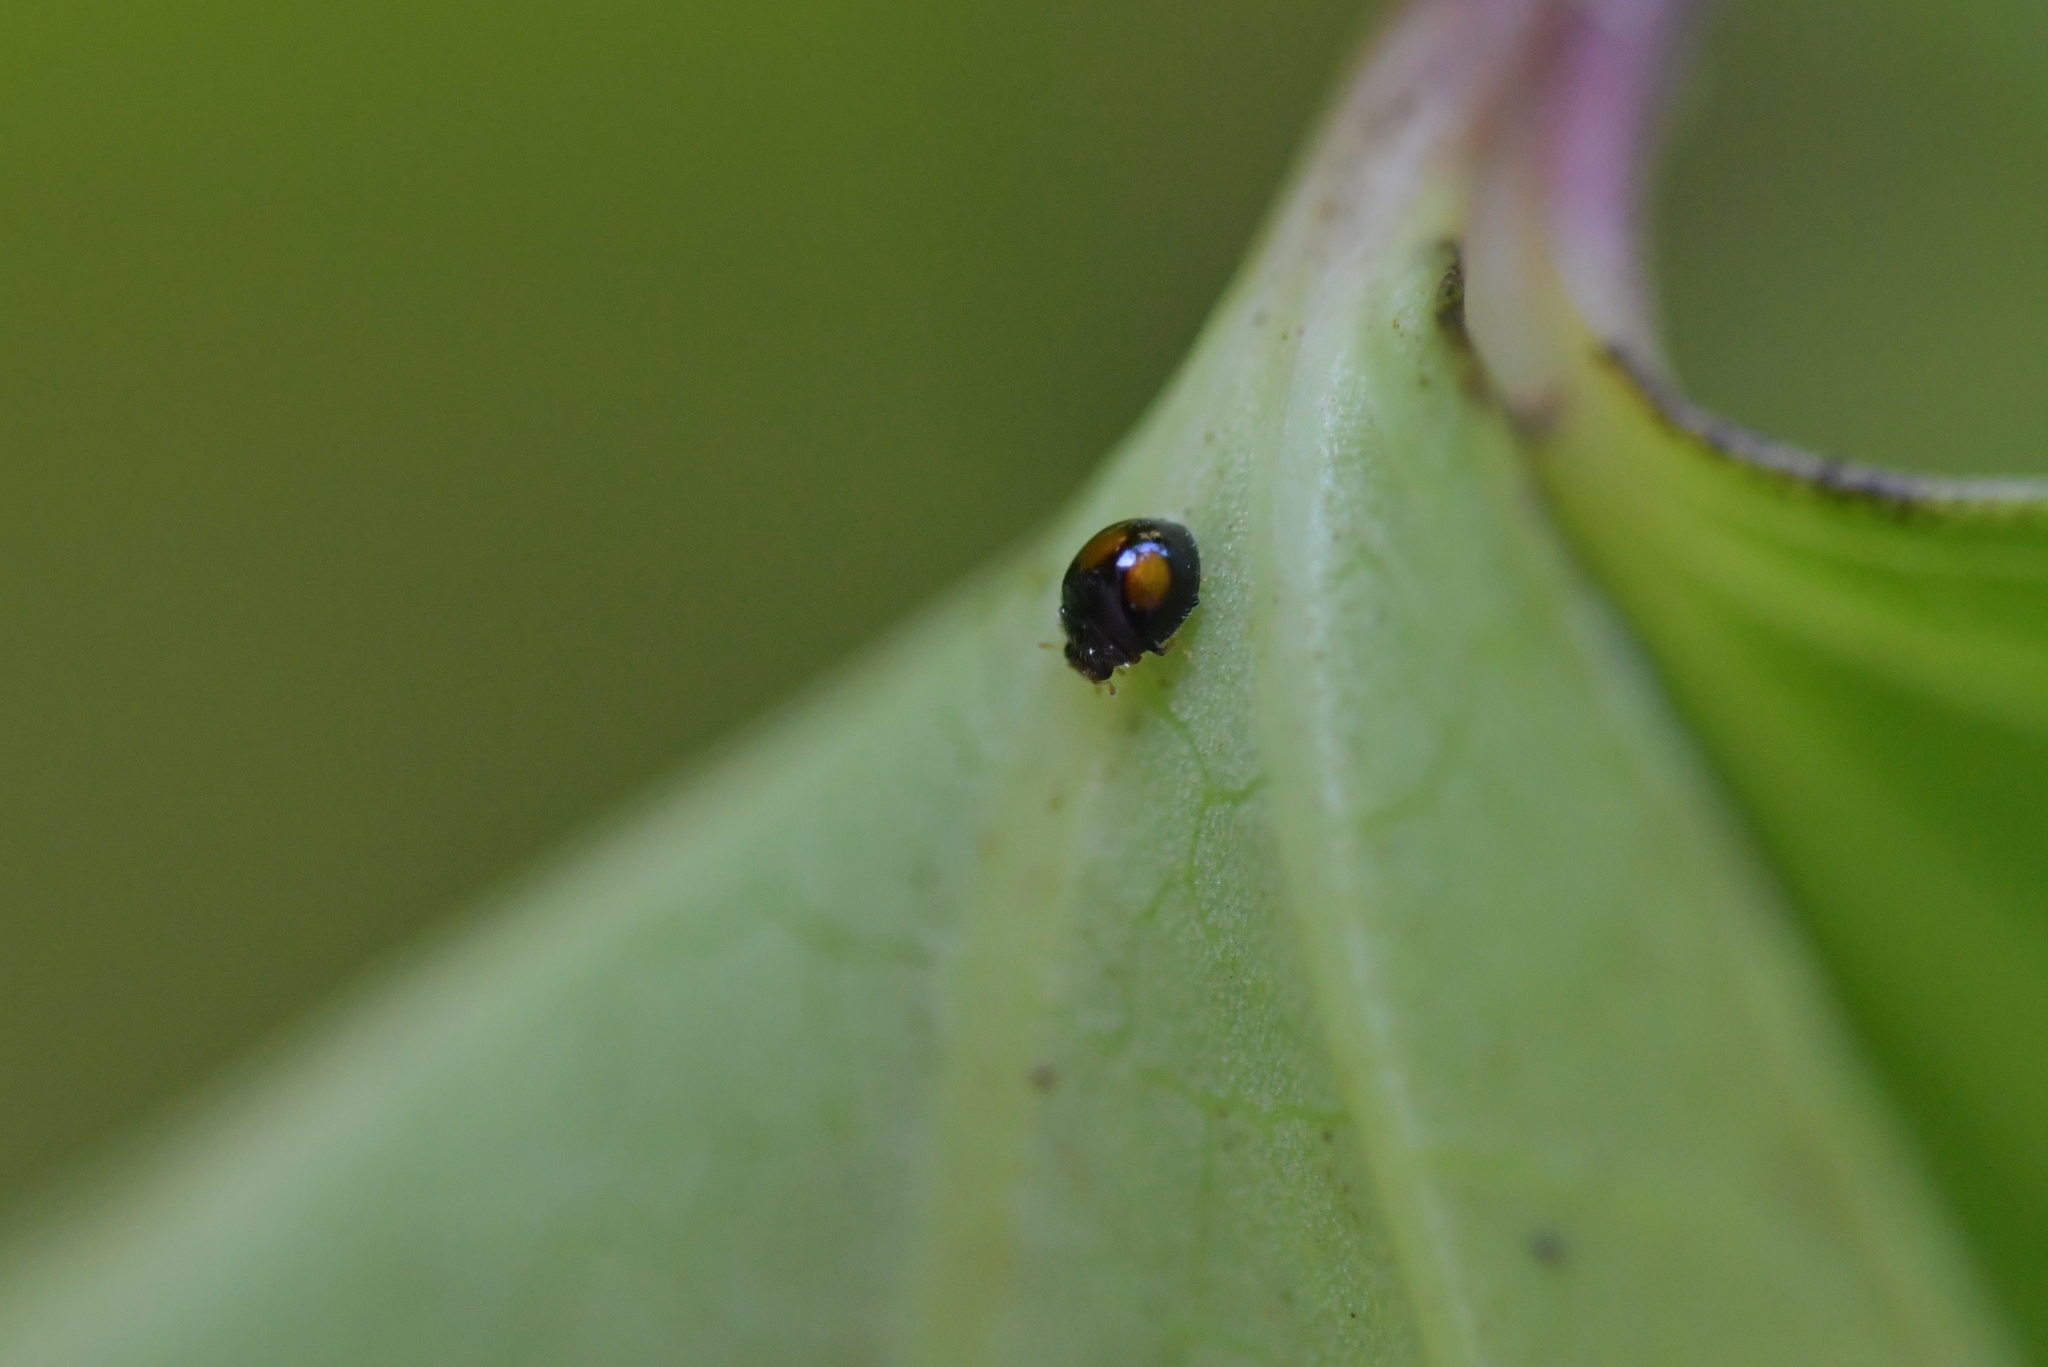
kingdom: Animalia
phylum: Arthropoda
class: Insecta
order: Coleoptera
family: Coccinellidae
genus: Serangium
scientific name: Serangium maculigerum
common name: Lady beetle
